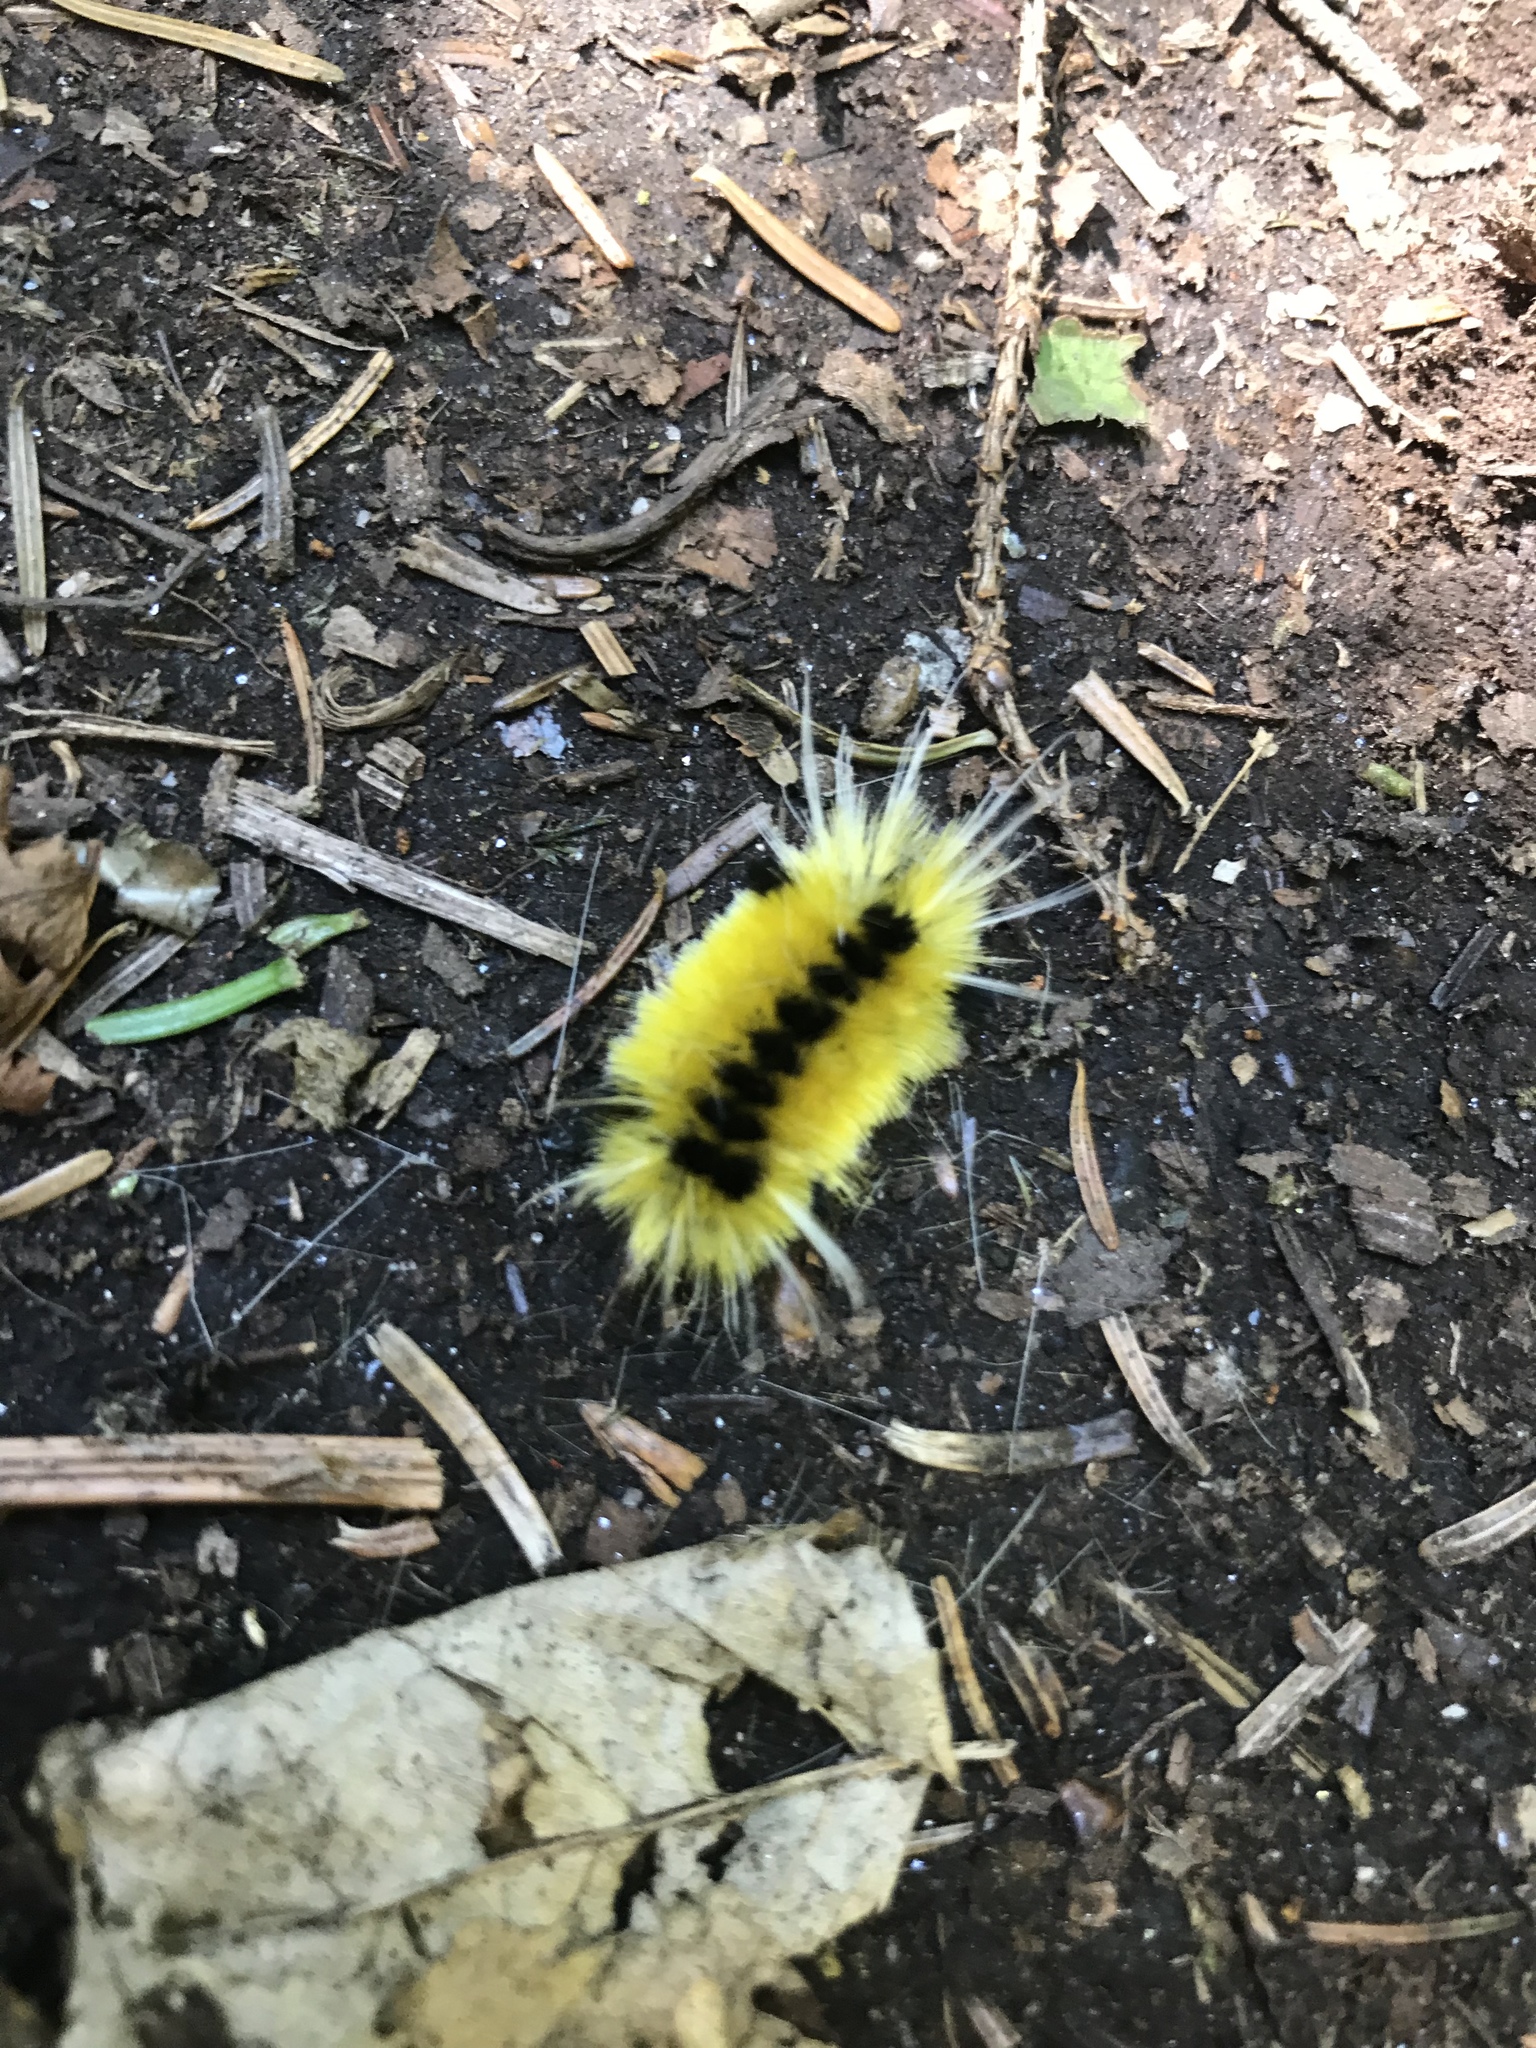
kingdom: Animalia
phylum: Arthropoda
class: Insecta
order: Lepidoptera
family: Erebidae
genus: Lophocampa
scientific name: Lophocampa maculata
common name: Spotted tussock moth
